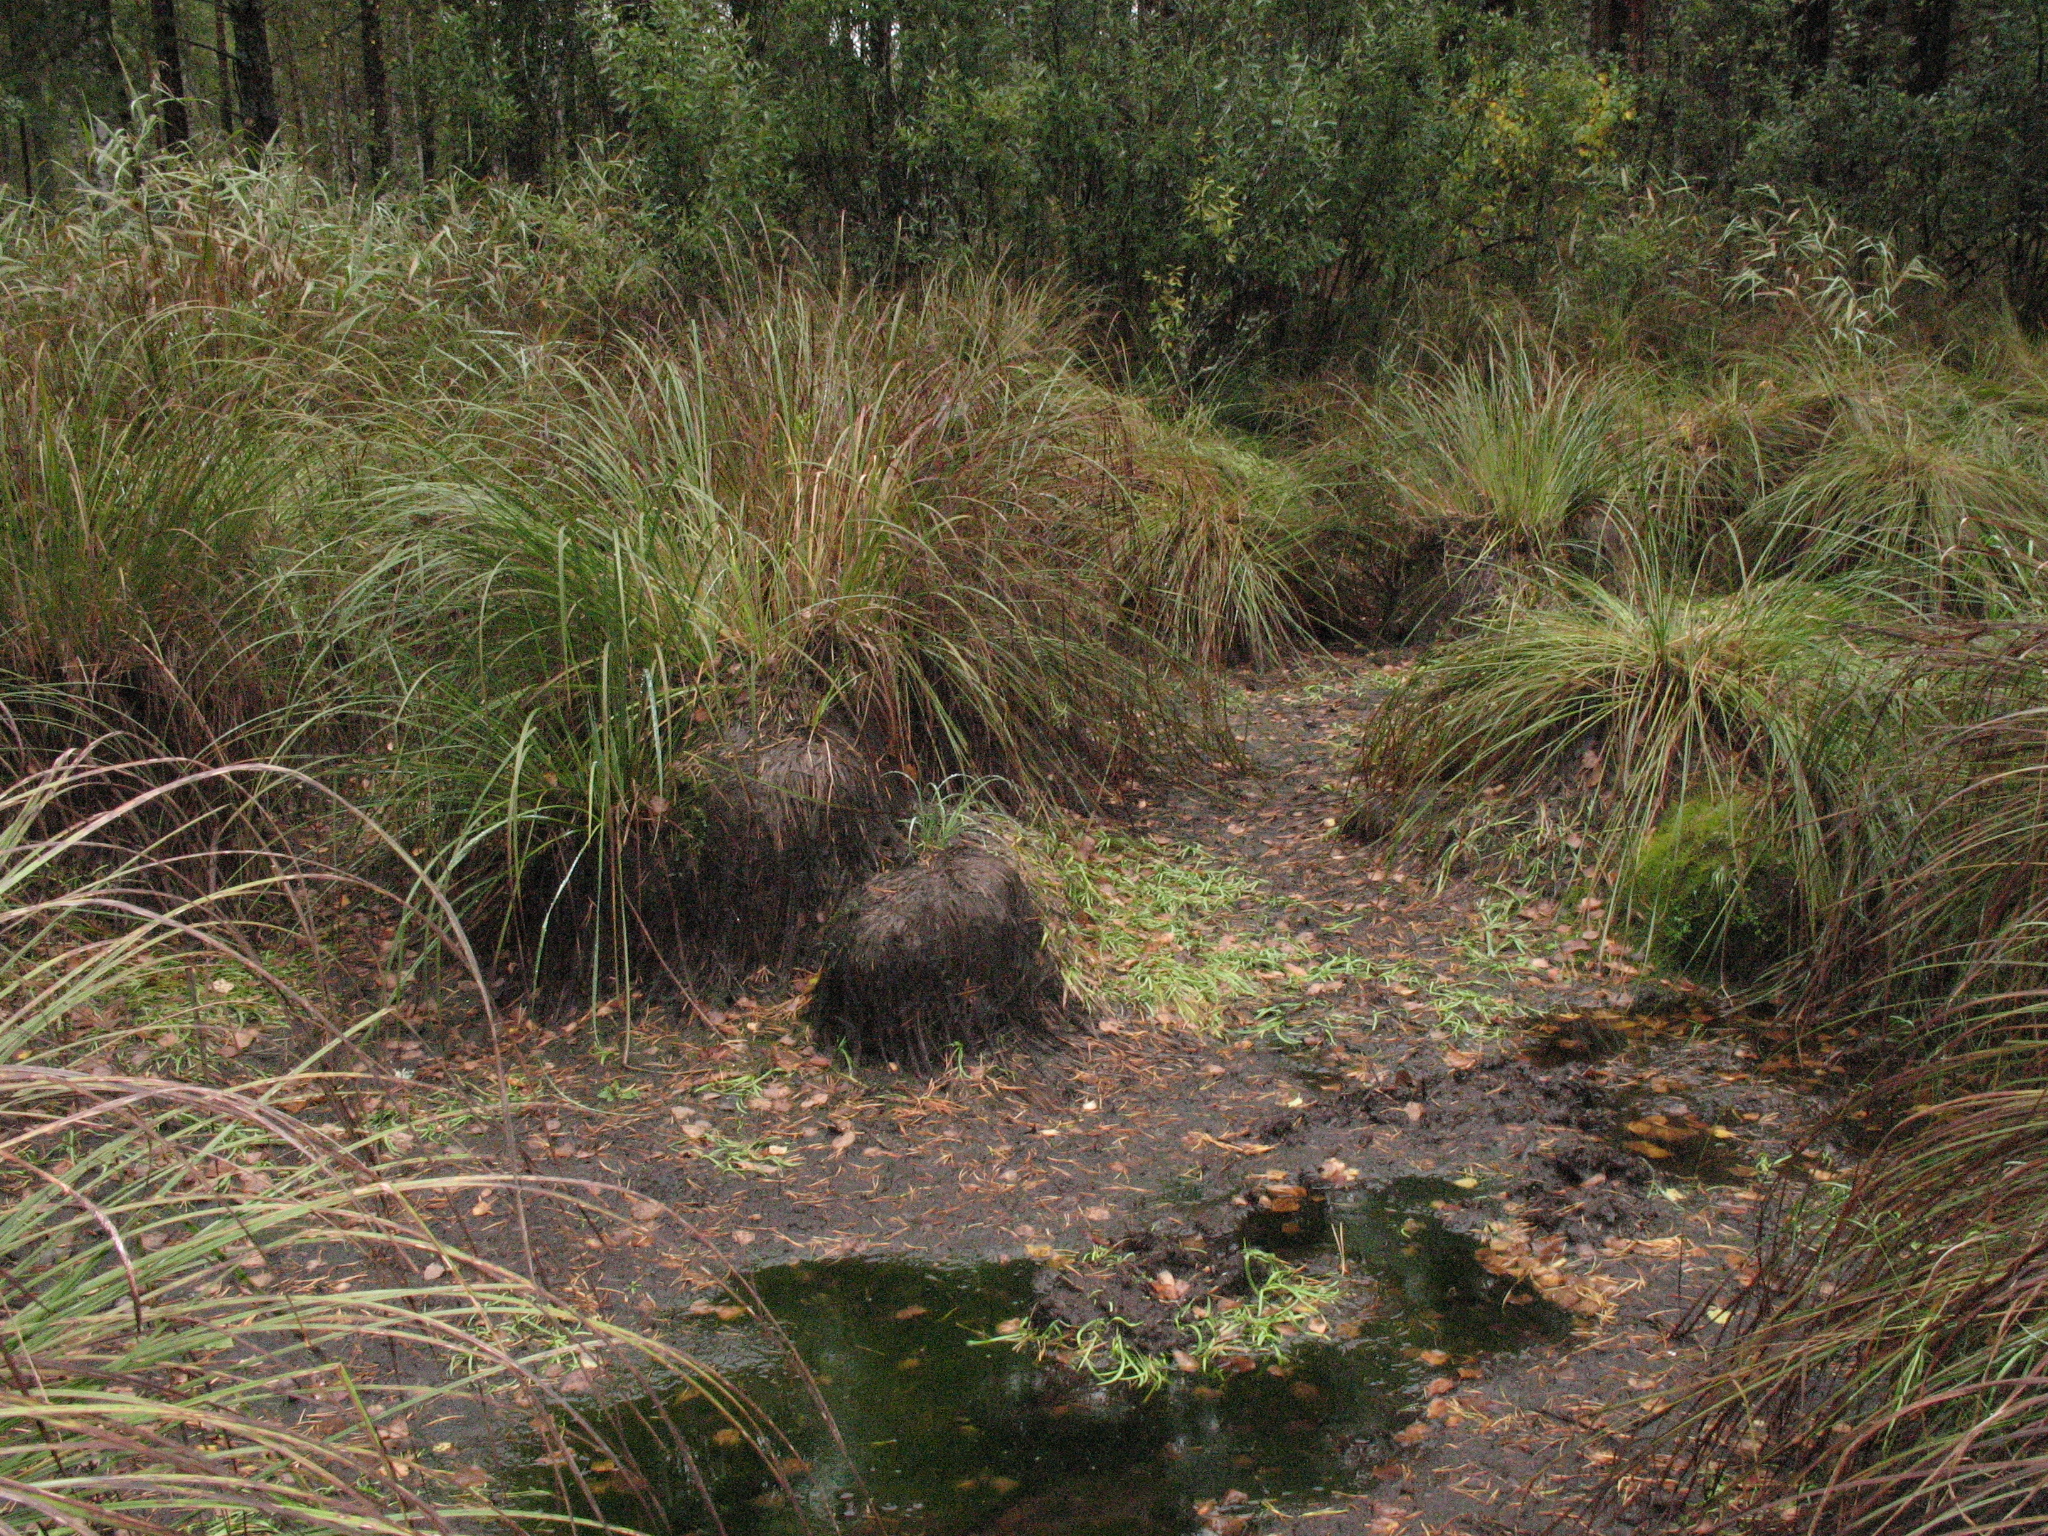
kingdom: Plantae
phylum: Tracheophyta
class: Liliopsida
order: Poales
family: Typhaceae
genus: Sparganium
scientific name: Sparganium natans
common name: Least bur-reed
